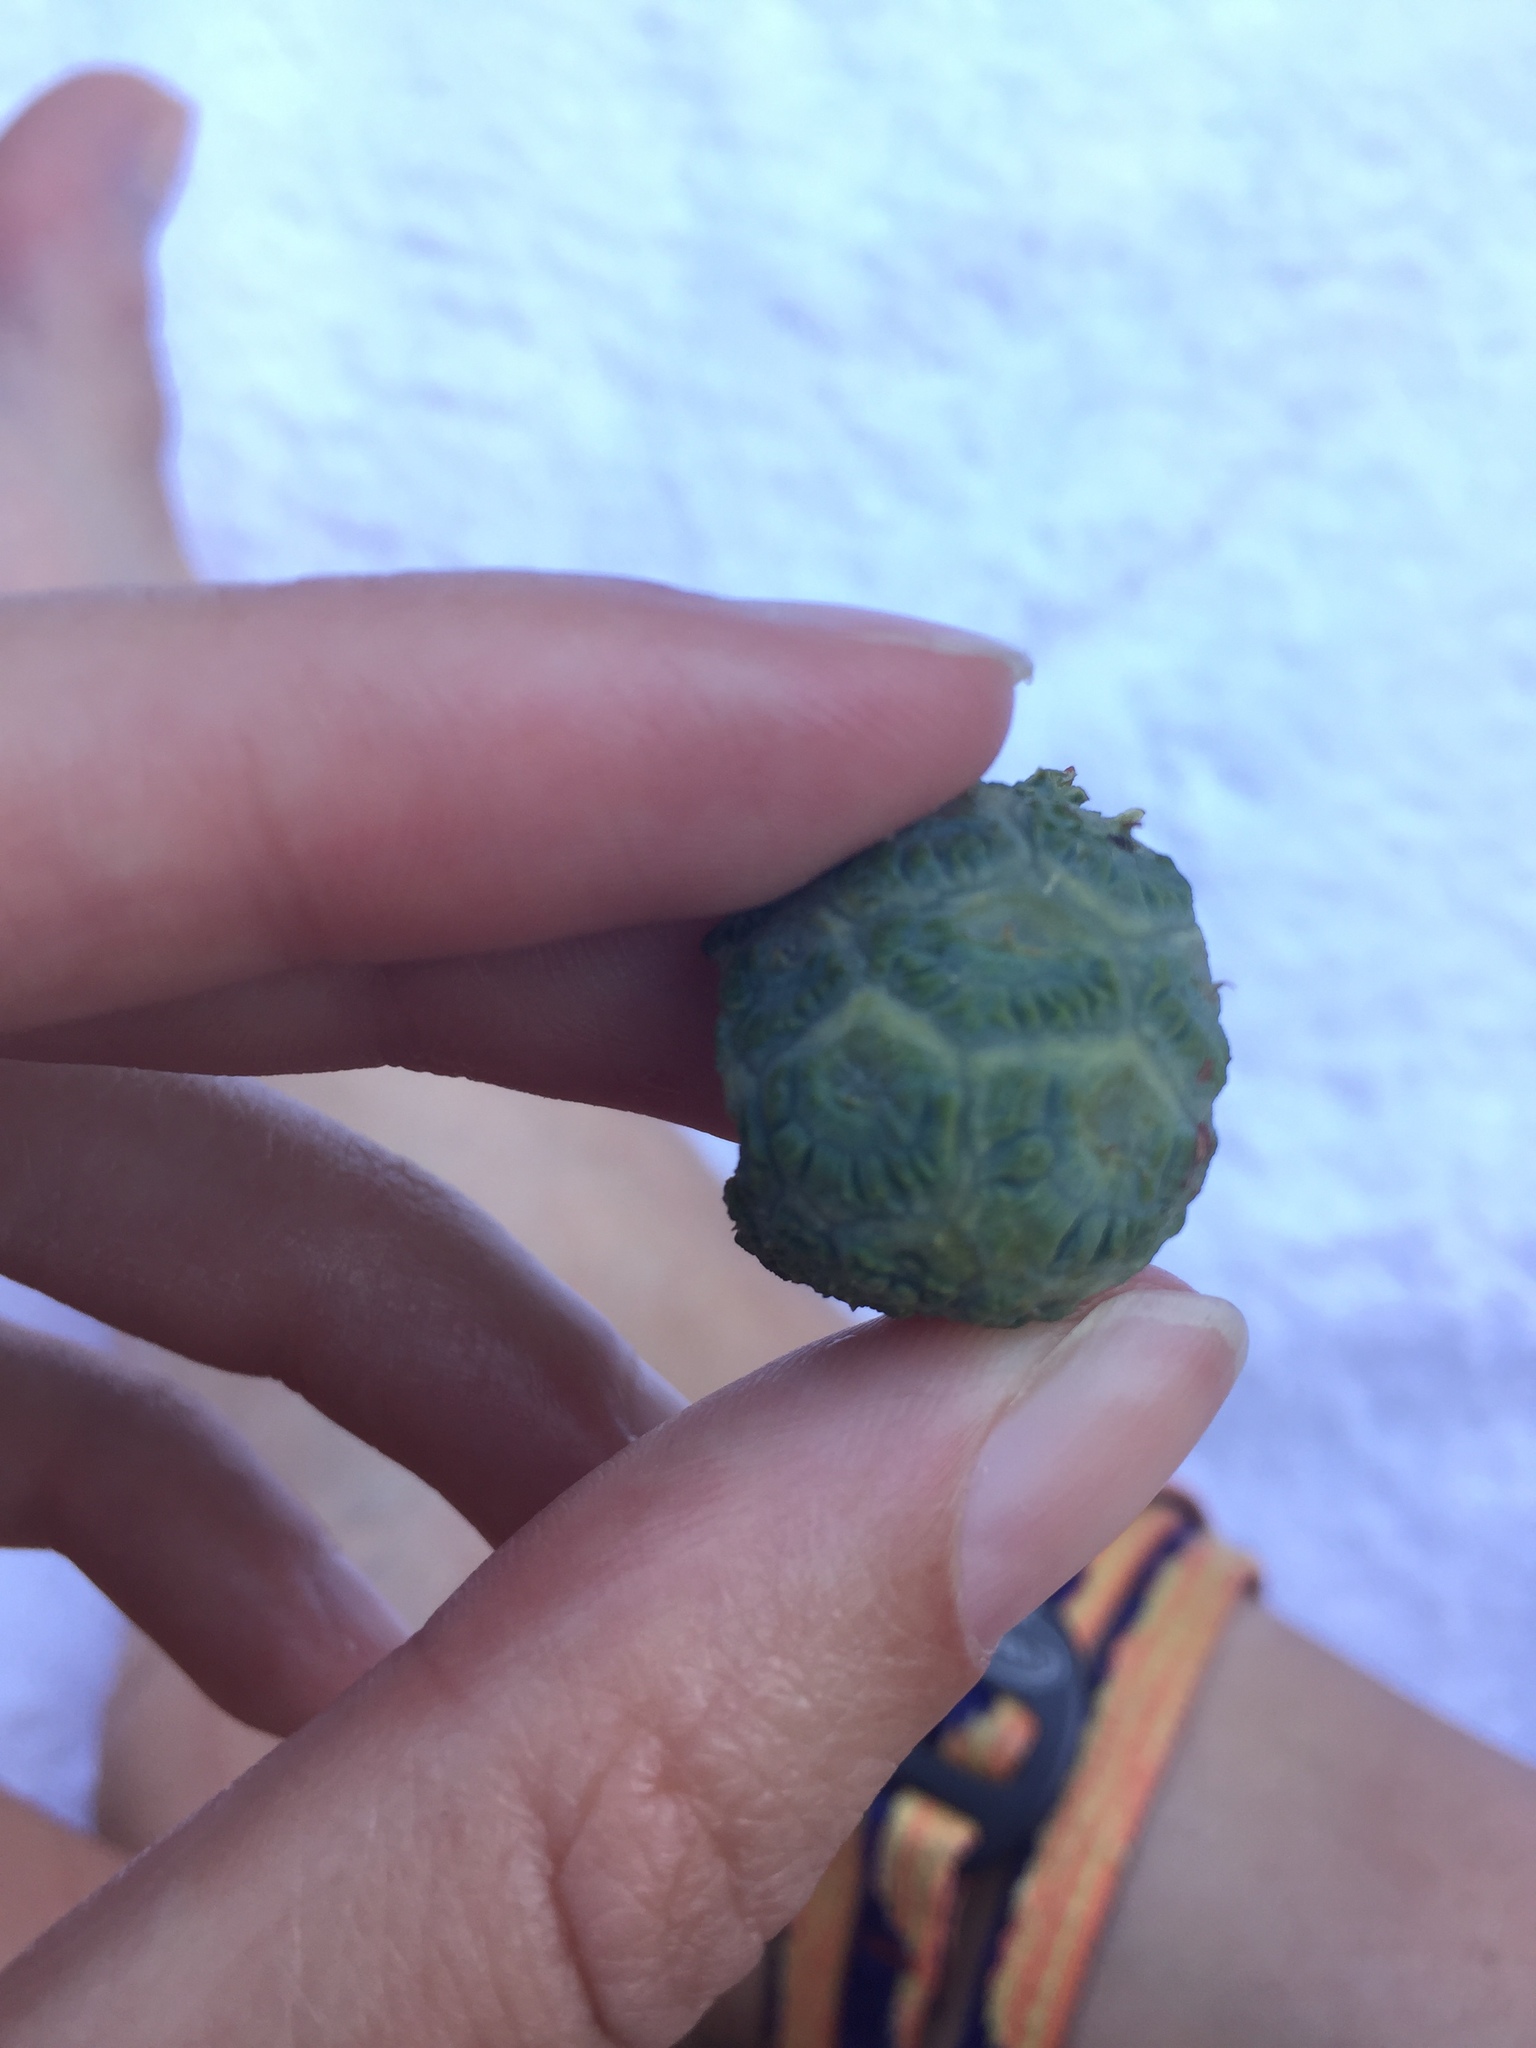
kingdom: Plantae
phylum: Tracheophyta
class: Pinopsida
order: Pinales
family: Cupressaceae
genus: Taxodium
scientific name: Taxodium distichum
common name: Bald cypress
